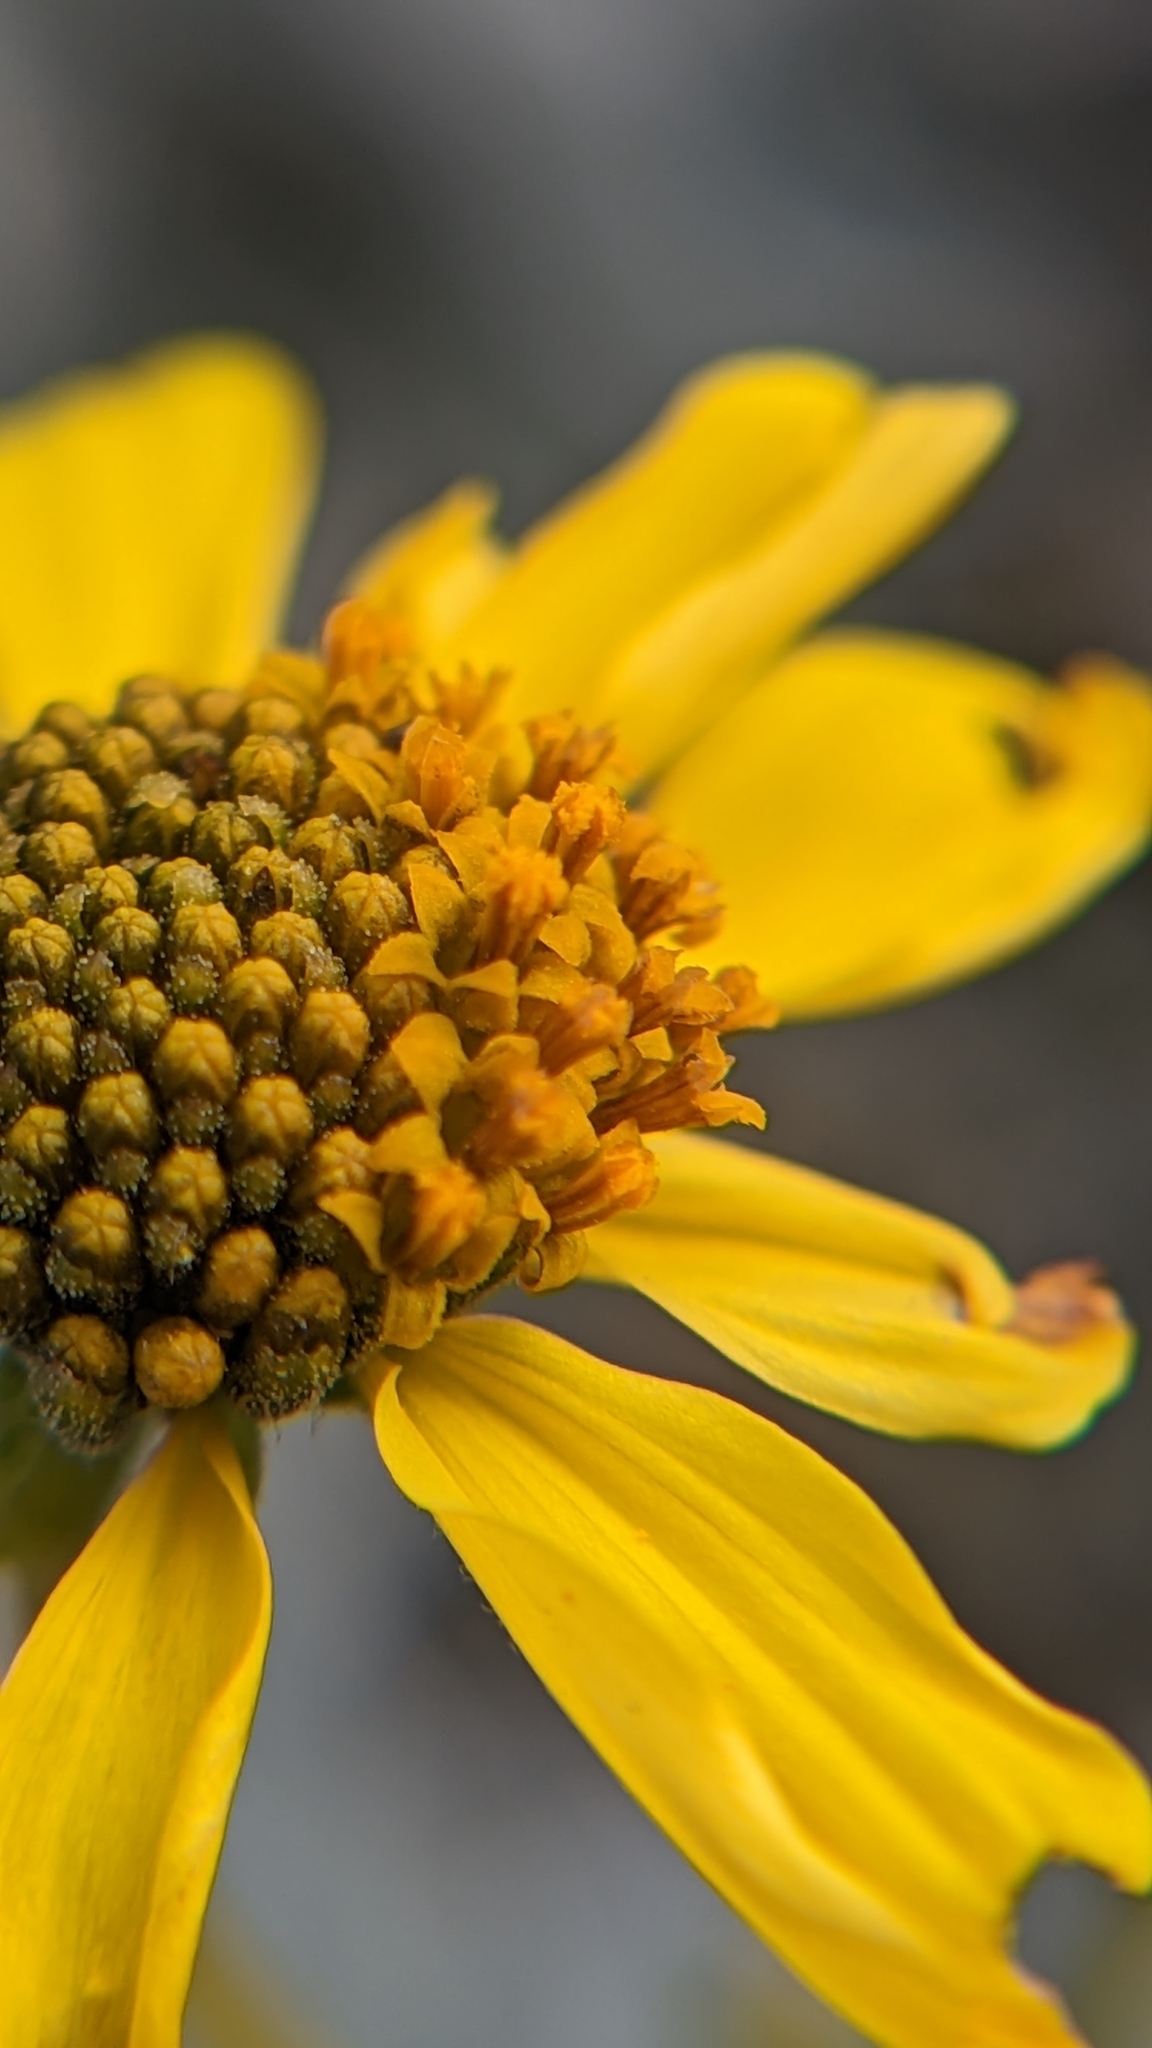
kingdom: Plantae
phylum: Tracheophyta
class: Magnoliopsida
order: Asterales
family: Asteraceae
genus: Encelia
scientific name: Encelia farinosa
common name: Brittlebush
